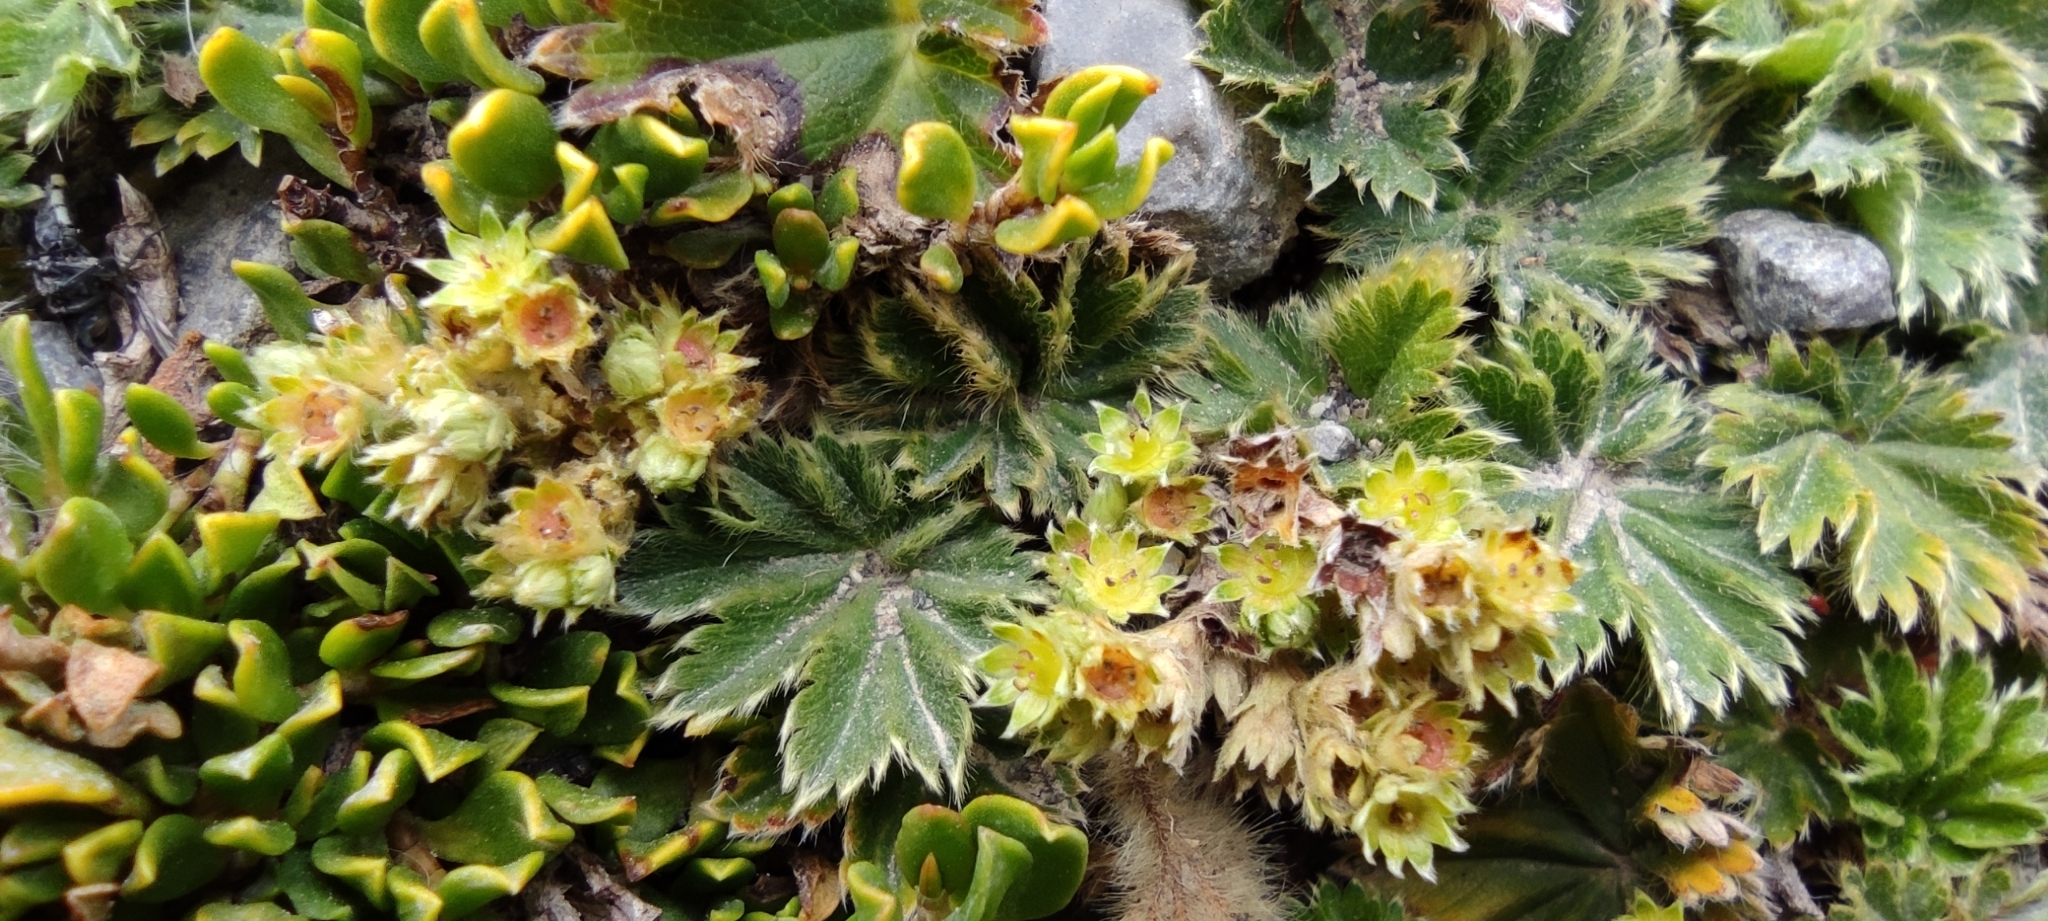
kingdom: Plantae
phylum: Tracheophyta
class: Magnoliopsida
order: Rosales
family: Rosaceae
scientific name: Rosaceae
